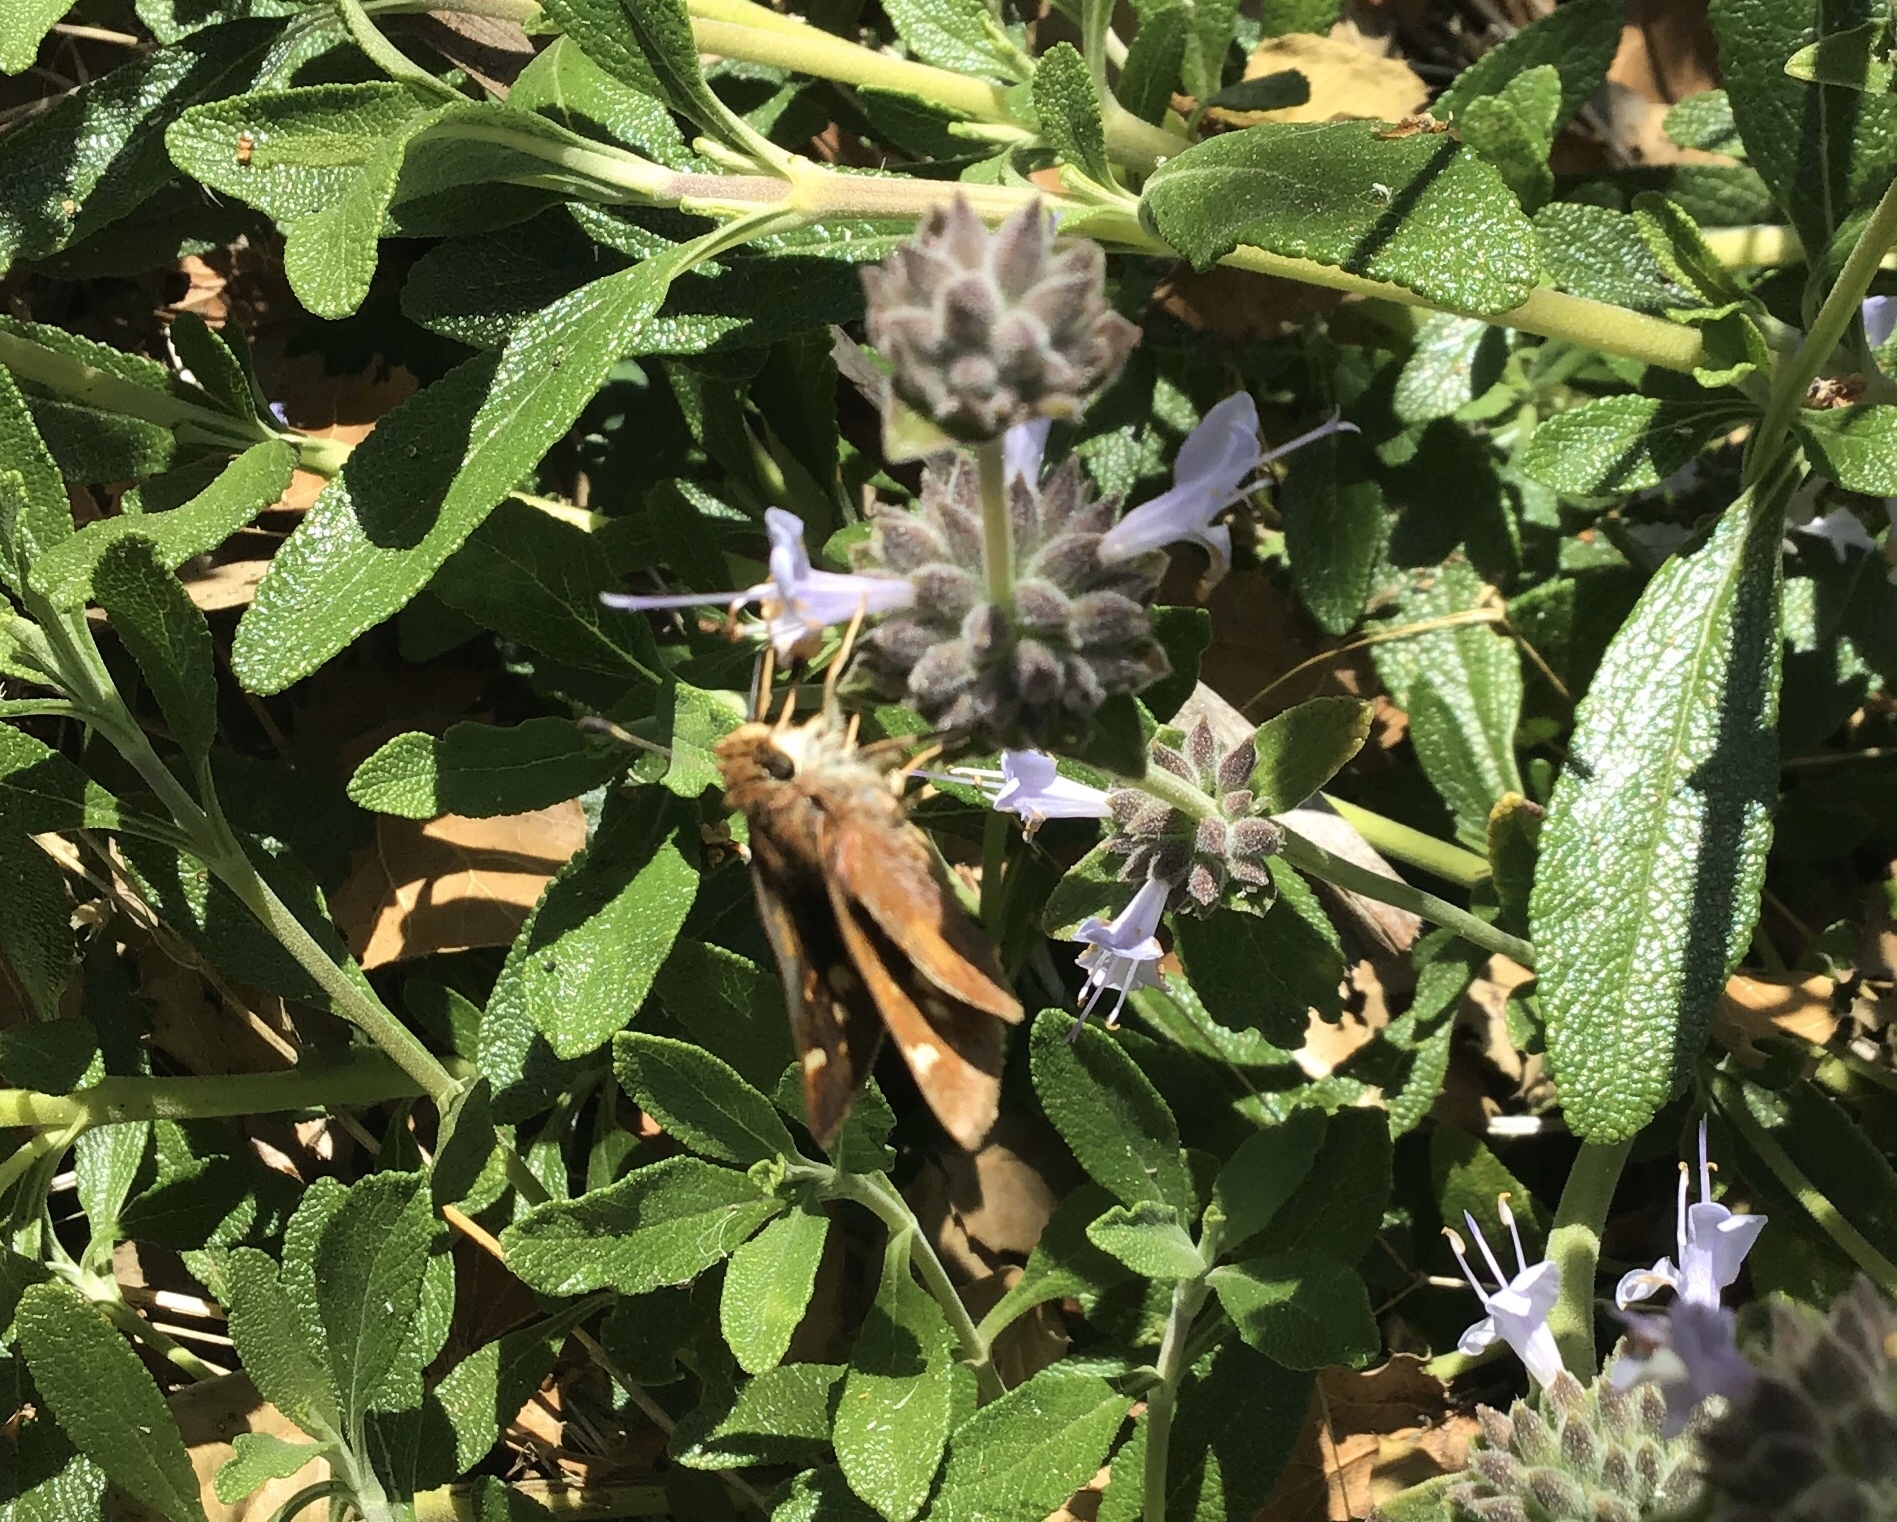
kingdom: Animalia
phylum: Arthropoda
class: Insecta
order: Lepidoptera
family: Hesperiidae
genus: Lon
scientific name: Lon melane
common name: Umber skipper
